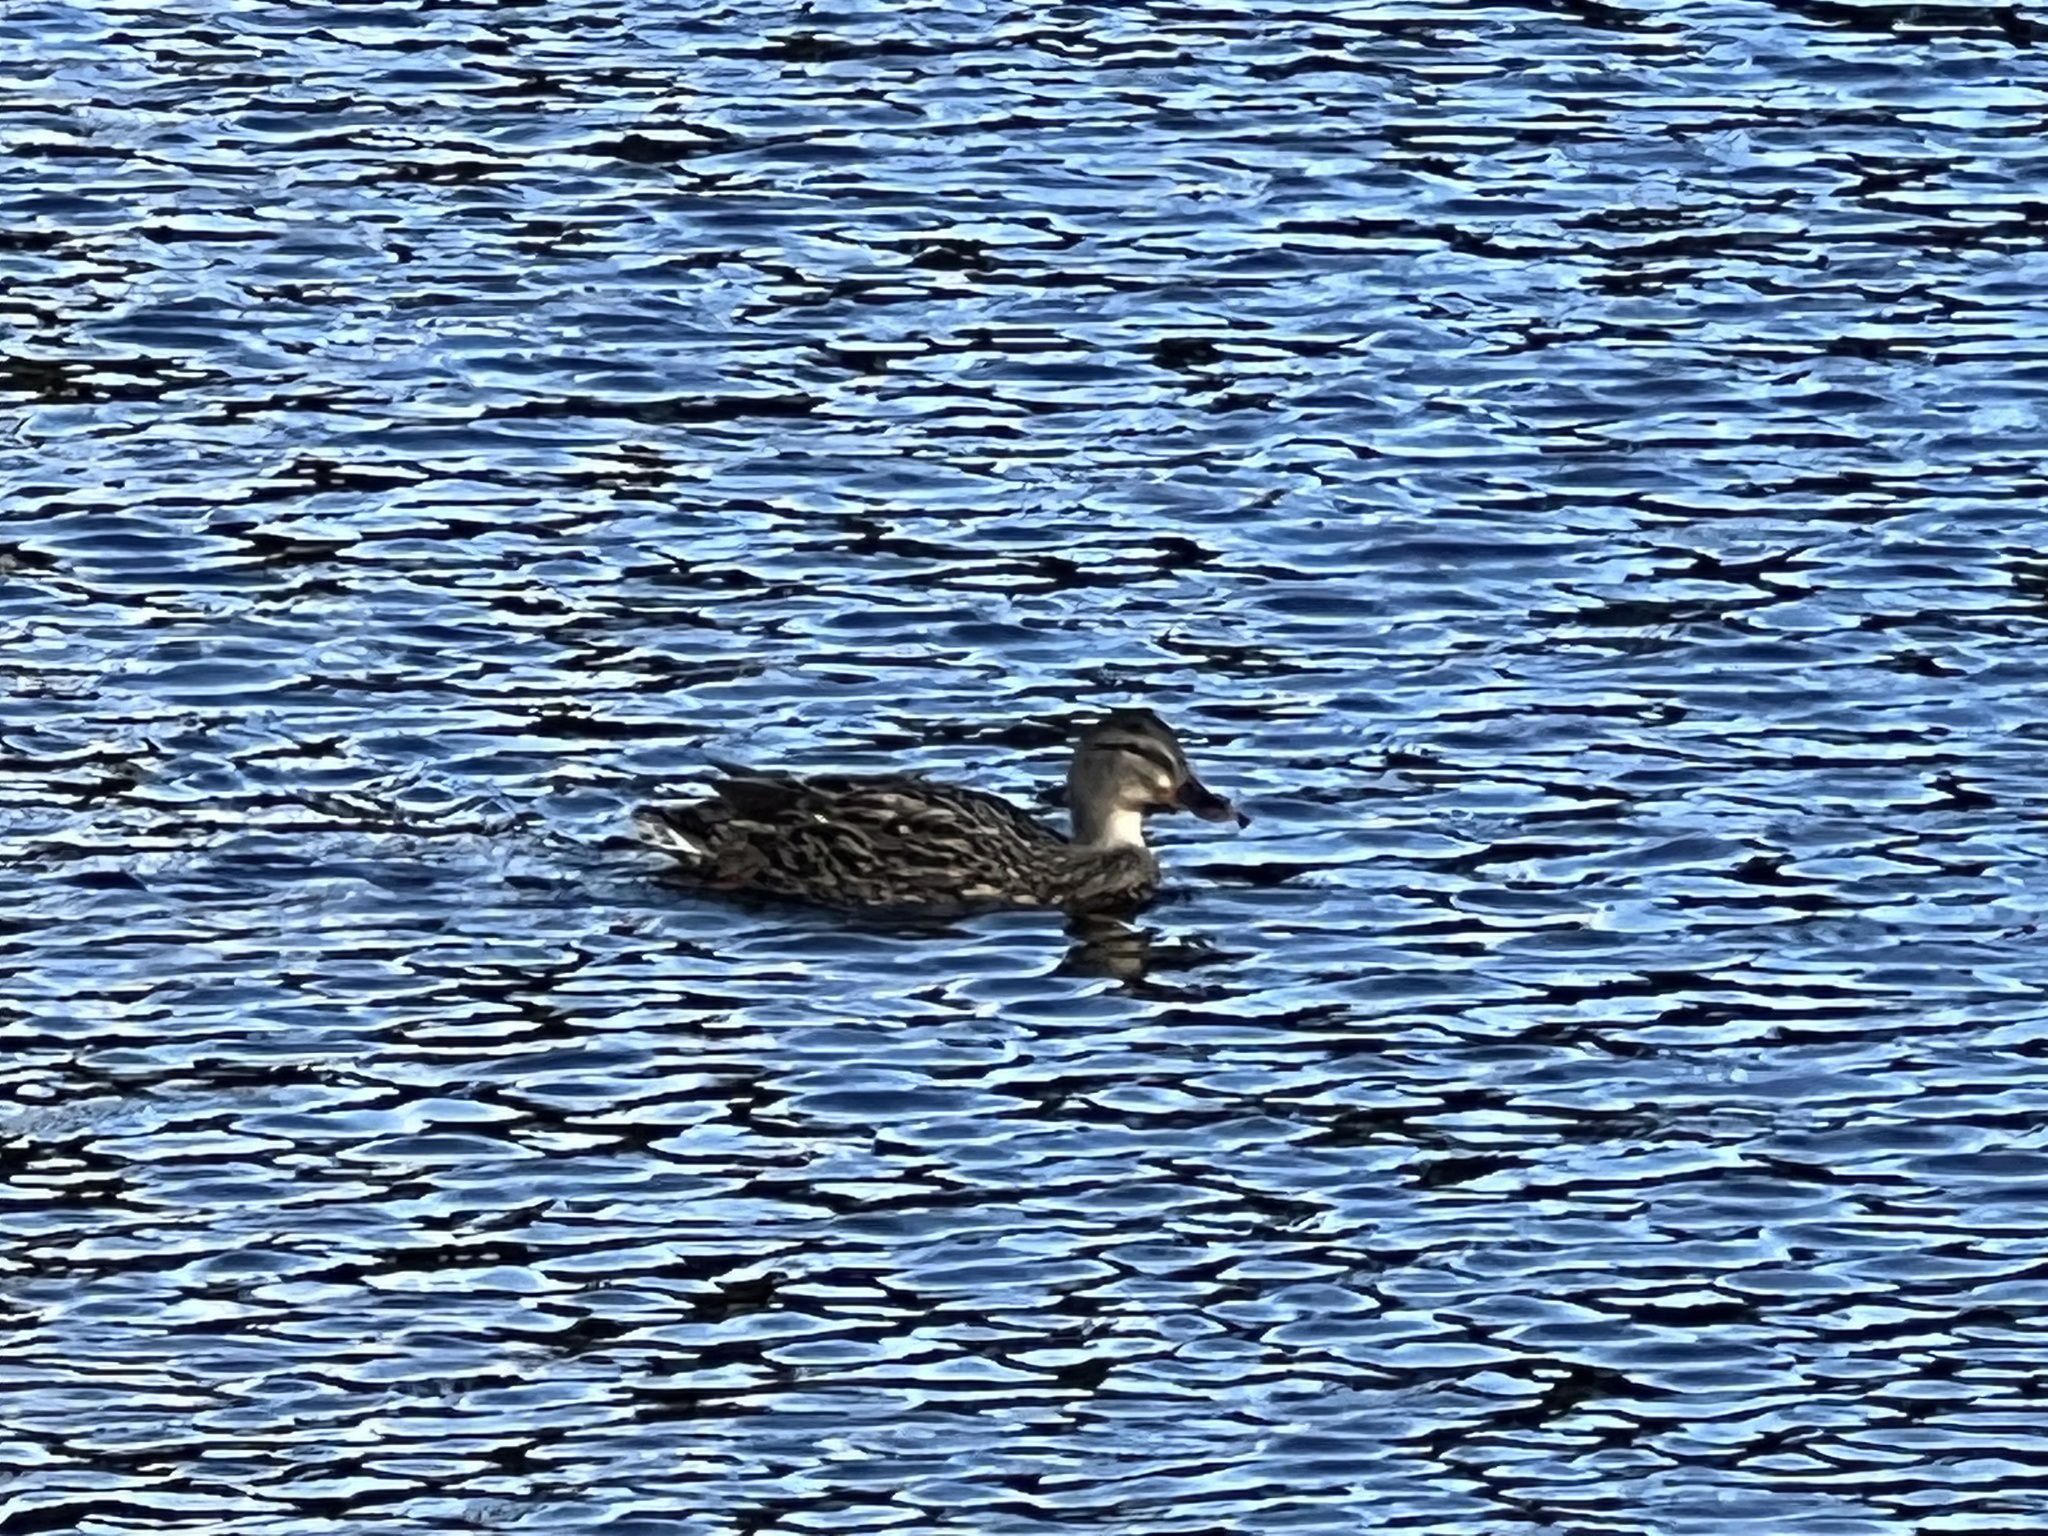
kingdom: Animalia
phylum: Chordata
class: Aves
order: Anseriformes
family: Anatidae
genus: Anas
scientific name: Anas platyrhynchos
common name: Mallard
